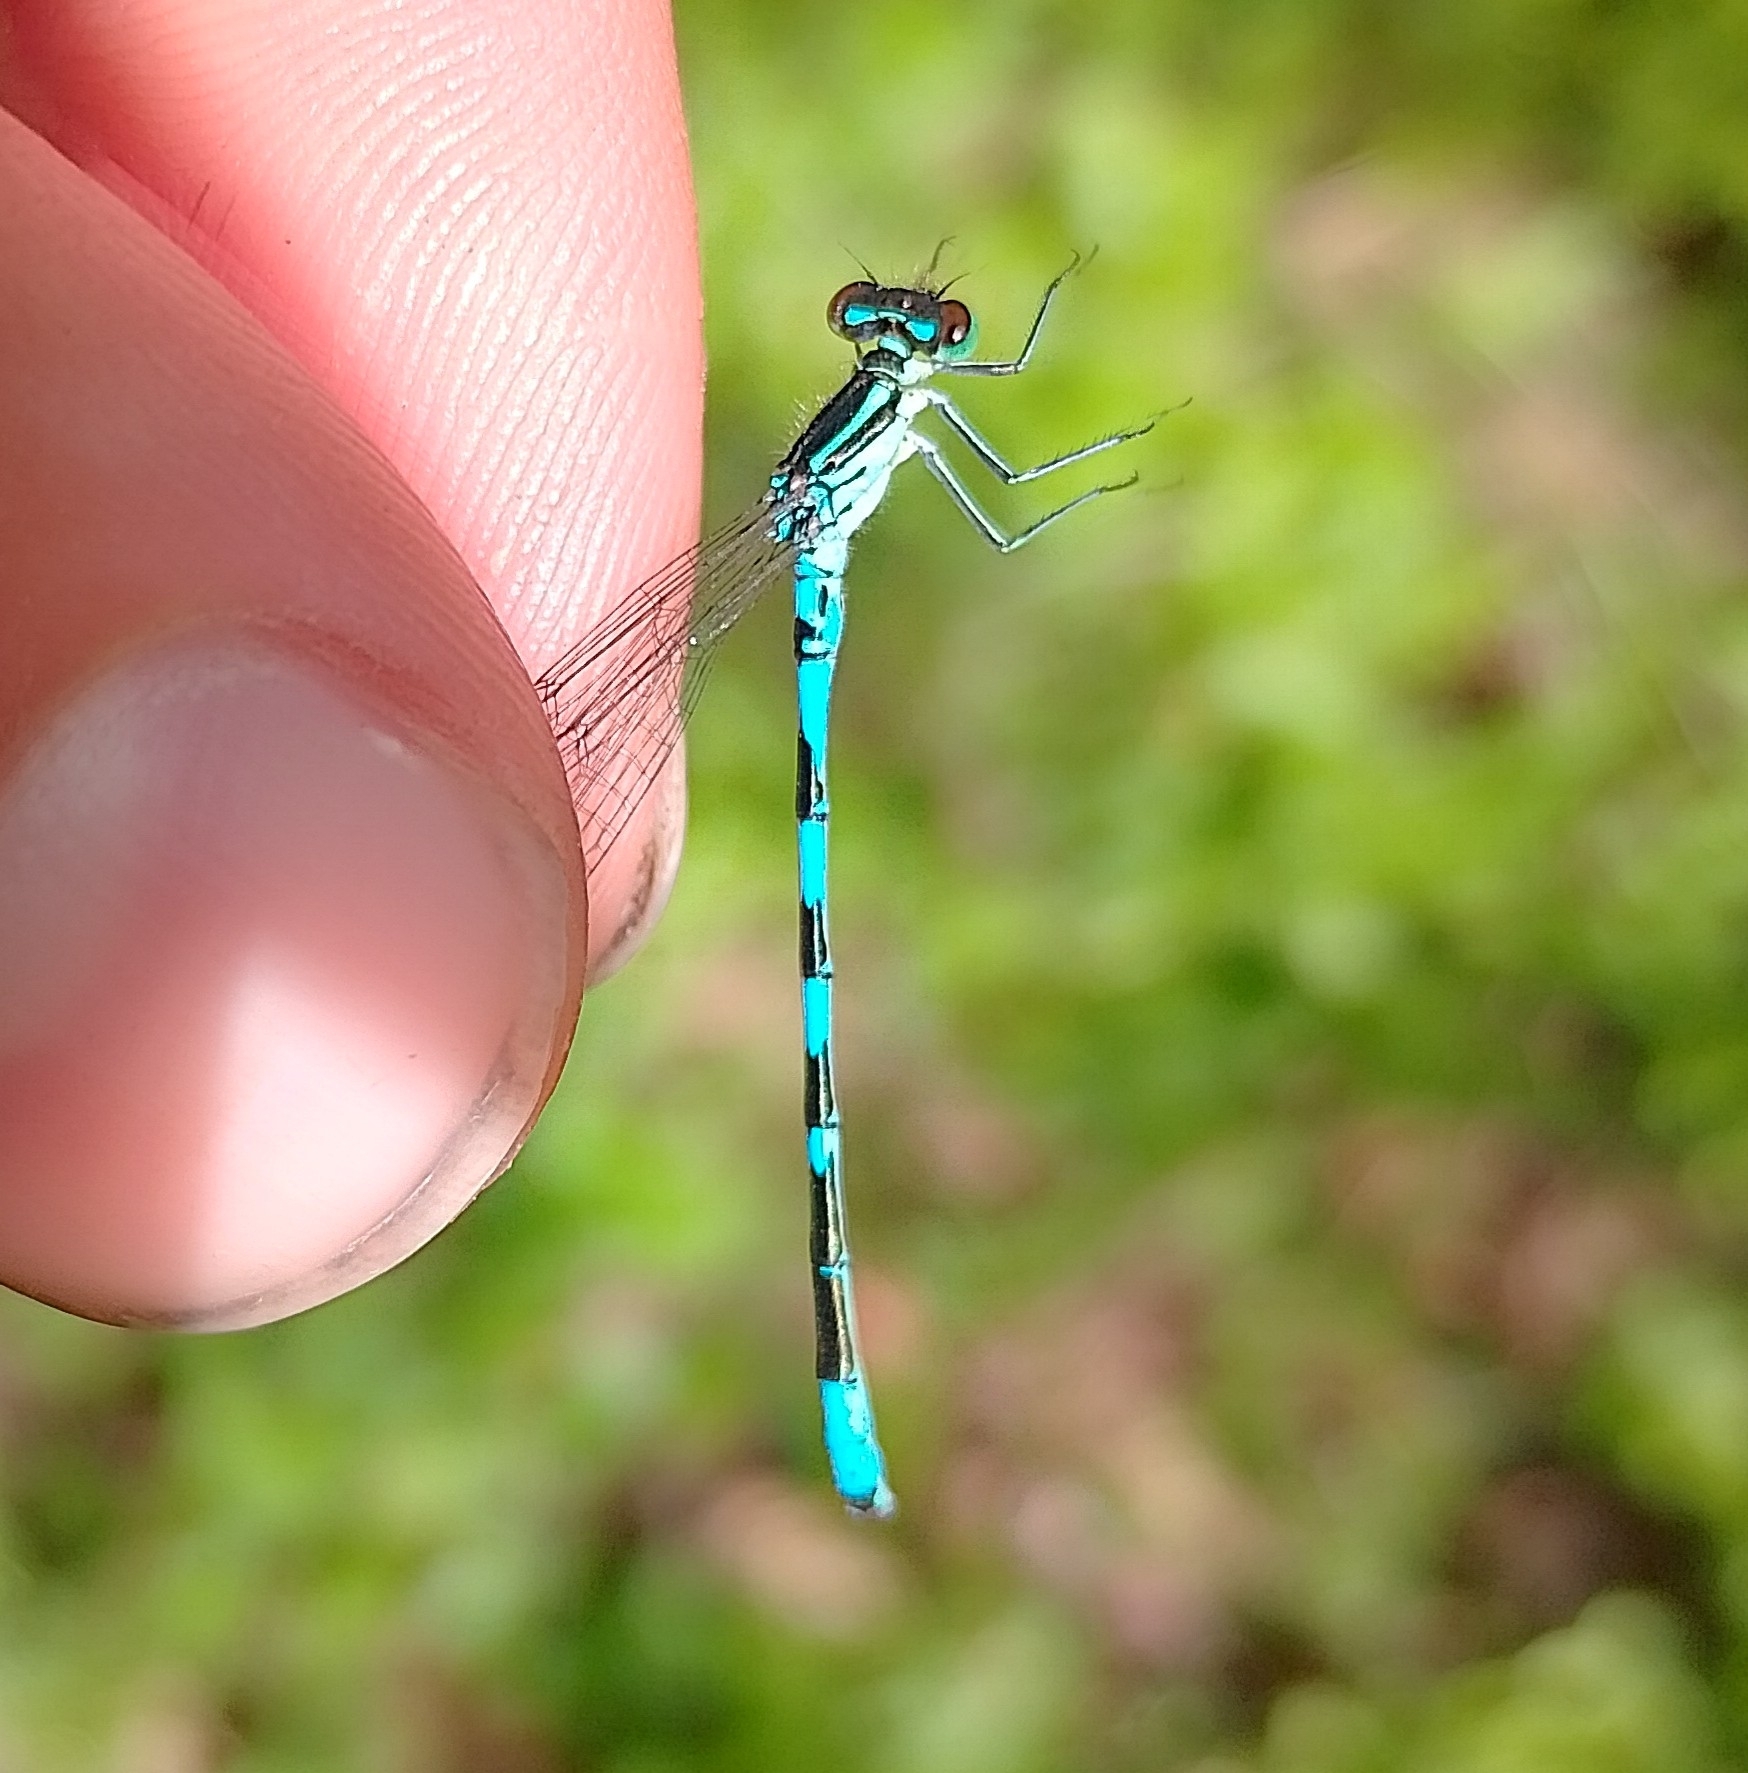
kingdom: Animalia
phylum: Arthropoda
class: Insecta
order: Odonata
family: Coenagrionidae
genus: Coenagrion
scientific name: Coenagrion hastulatum
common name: Spearhead bluet
